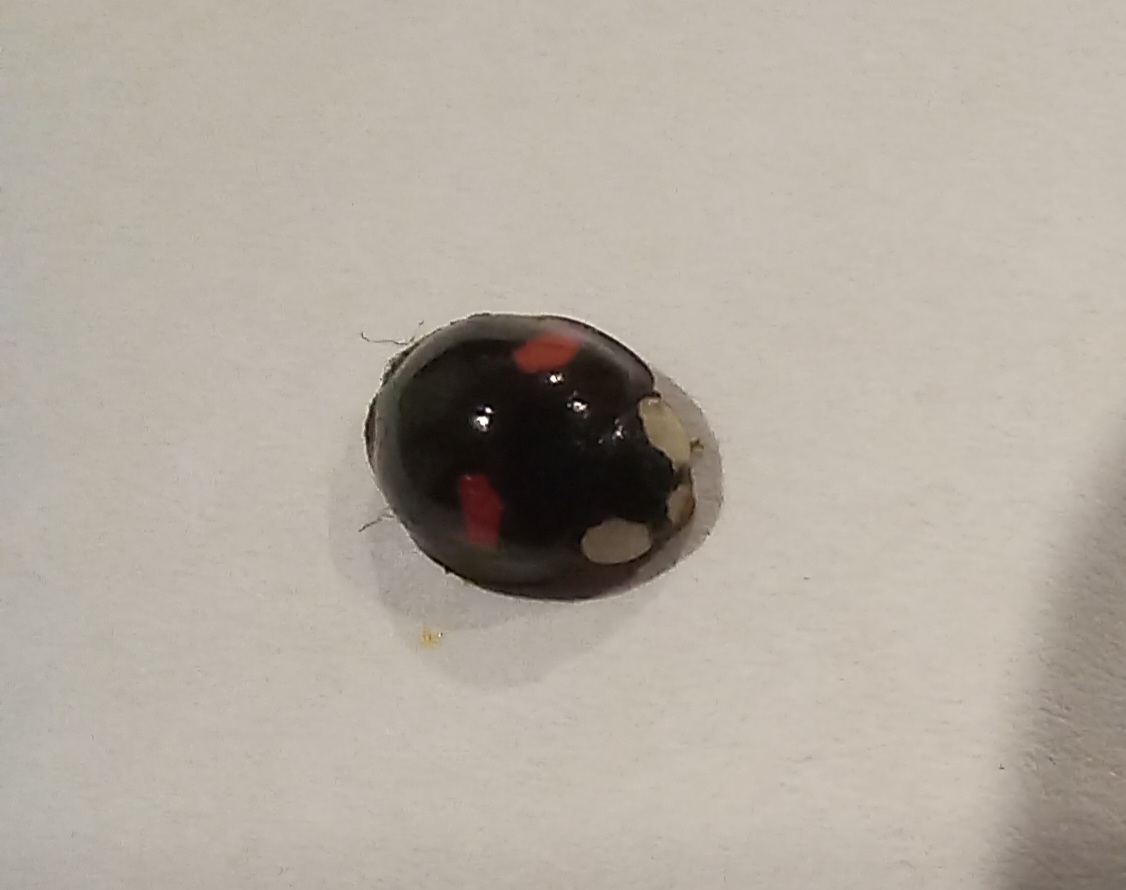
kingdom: Animalia
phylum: Arthropoda
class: Insecta
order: Coleoptera
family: Coccinellidae
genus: Harmonia
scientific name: Harmonia axyridis
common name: Harlequin ladybird
